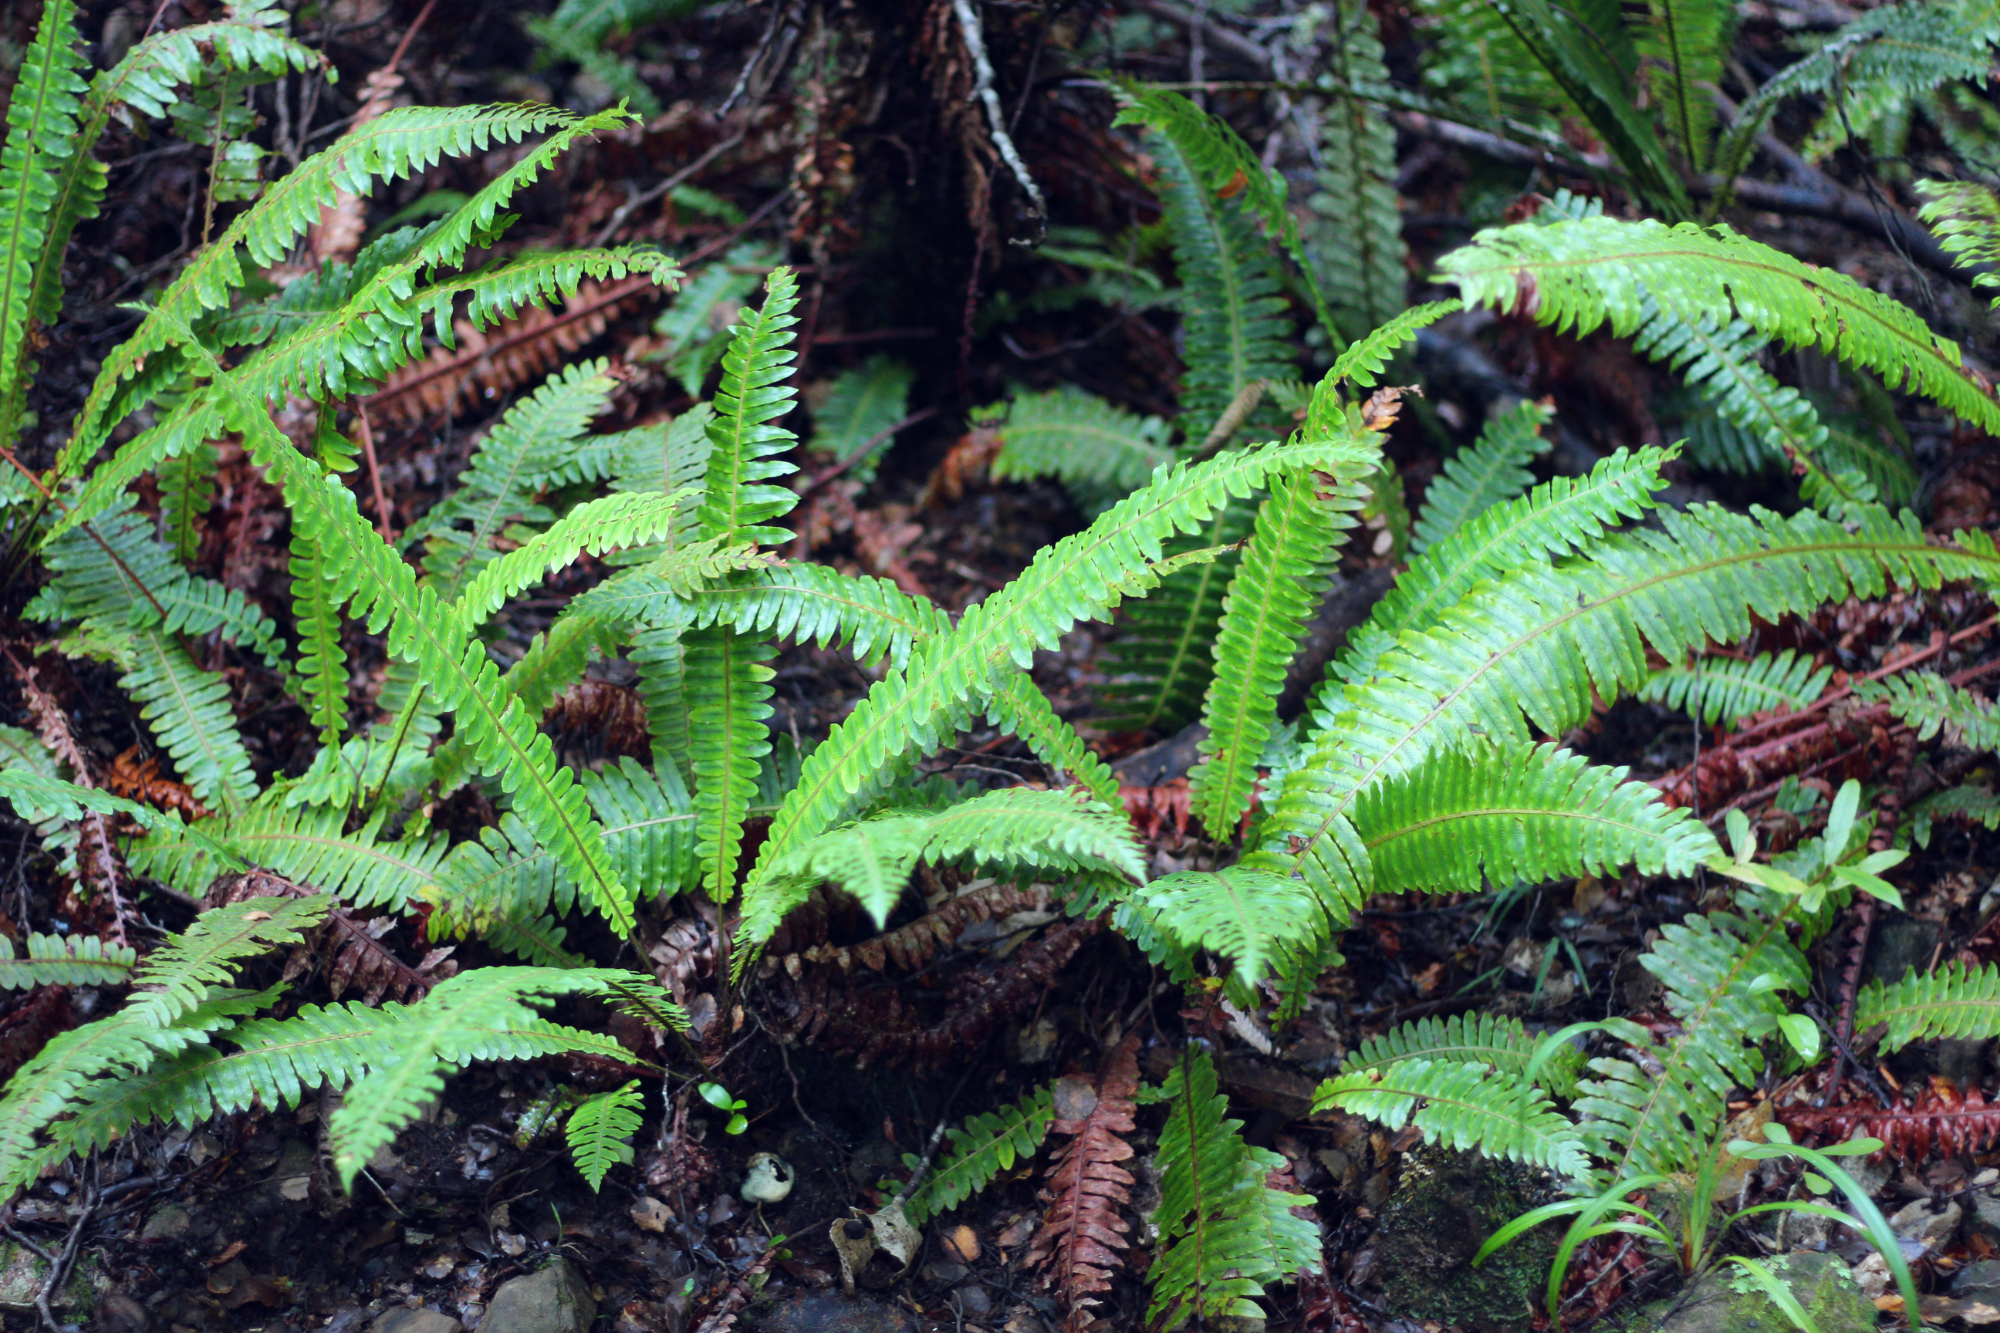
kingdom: Plantae
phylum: Tracheophyta
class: Polypodiopsida
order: Polypodiales
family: Blechnaceae
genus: Lomaria
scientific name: Lomaria discolor
